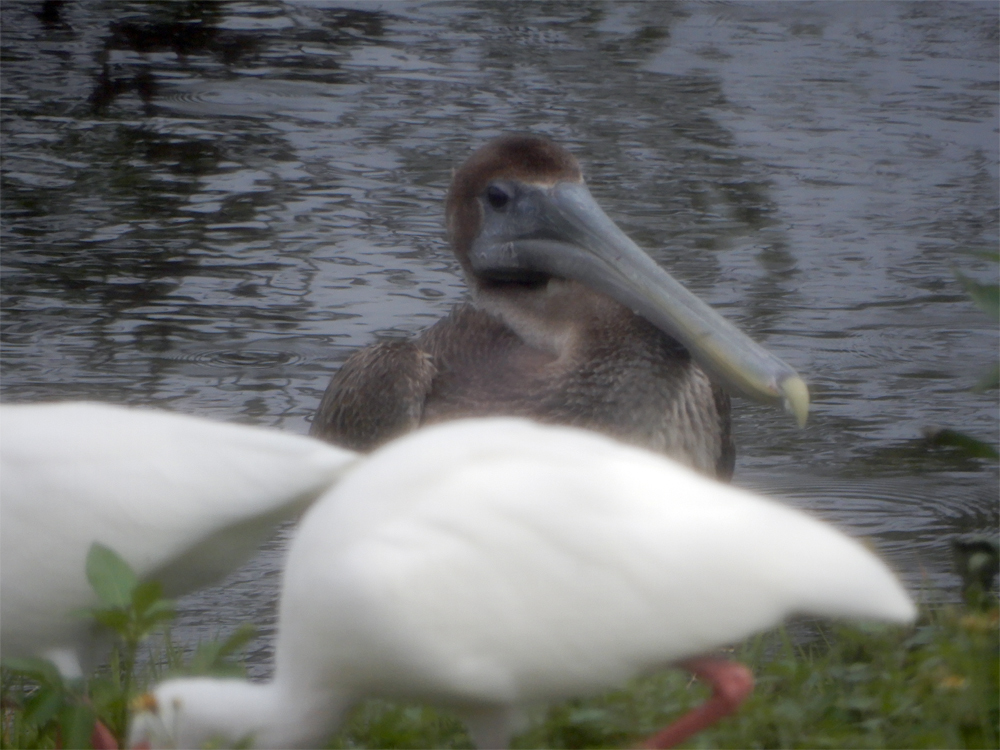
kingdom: Animalia
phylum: Chordata
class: Aves
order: Pelecaniformes
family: Pelecanidae
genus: Pelecanus
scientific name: Pelecanus occidentalis
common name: Brown pelican
